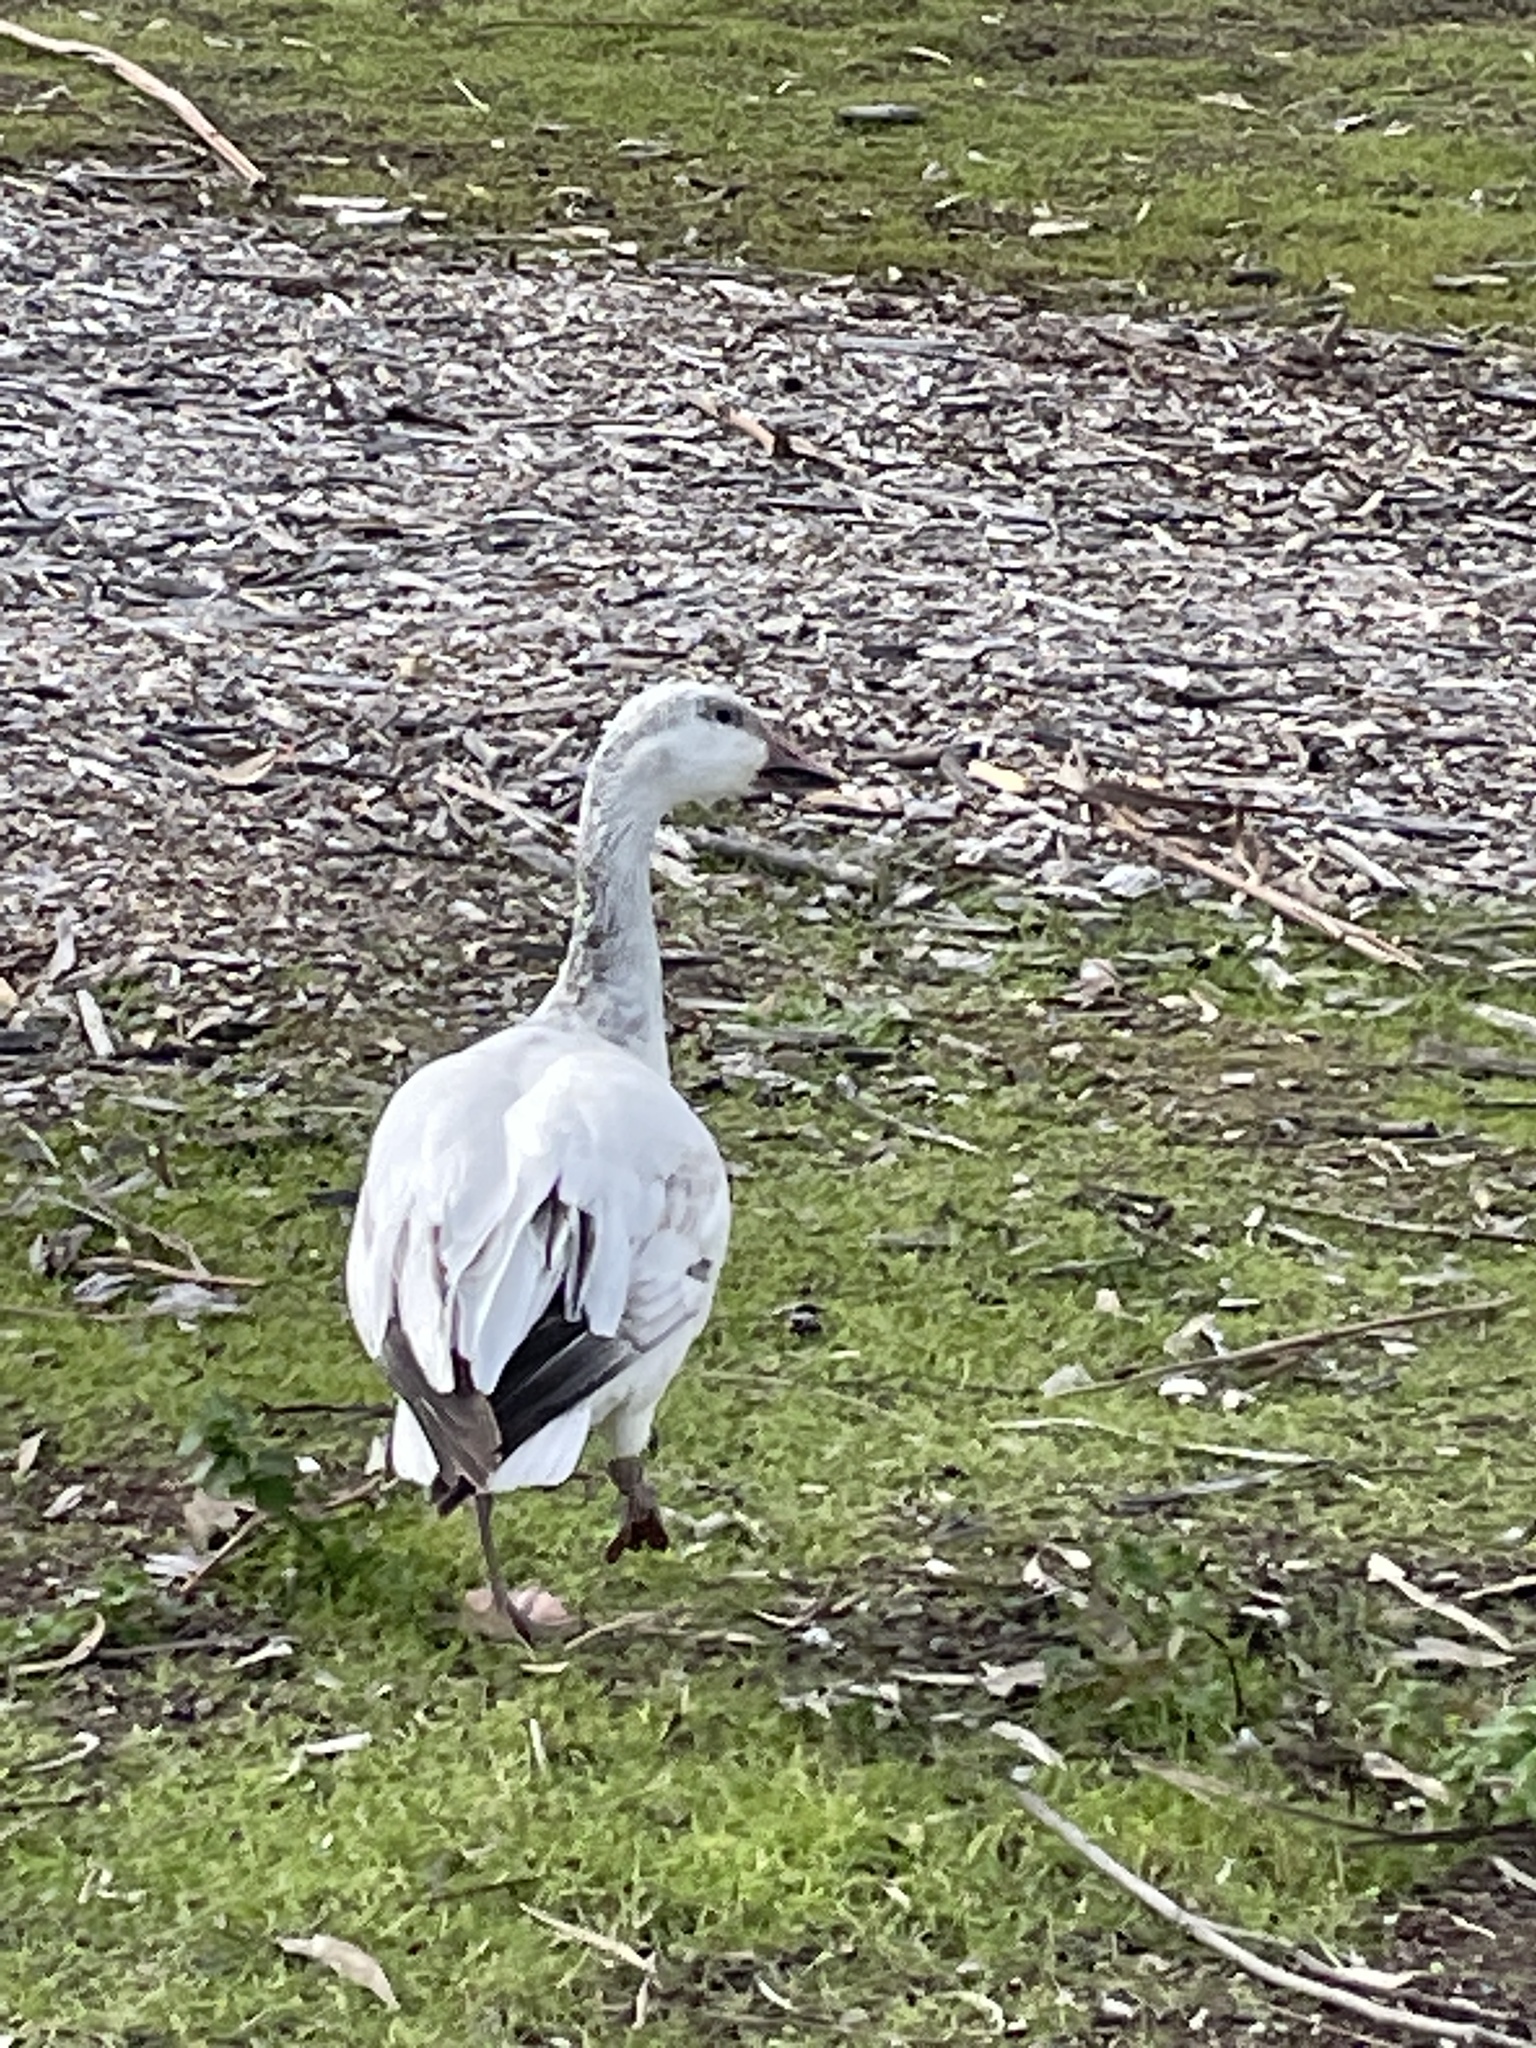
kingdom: Animalia
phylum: Chordata
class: Aves
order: Anseriformes
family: Anatidae
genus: Anser
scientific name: Anser caerulescens
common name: Snow goose
